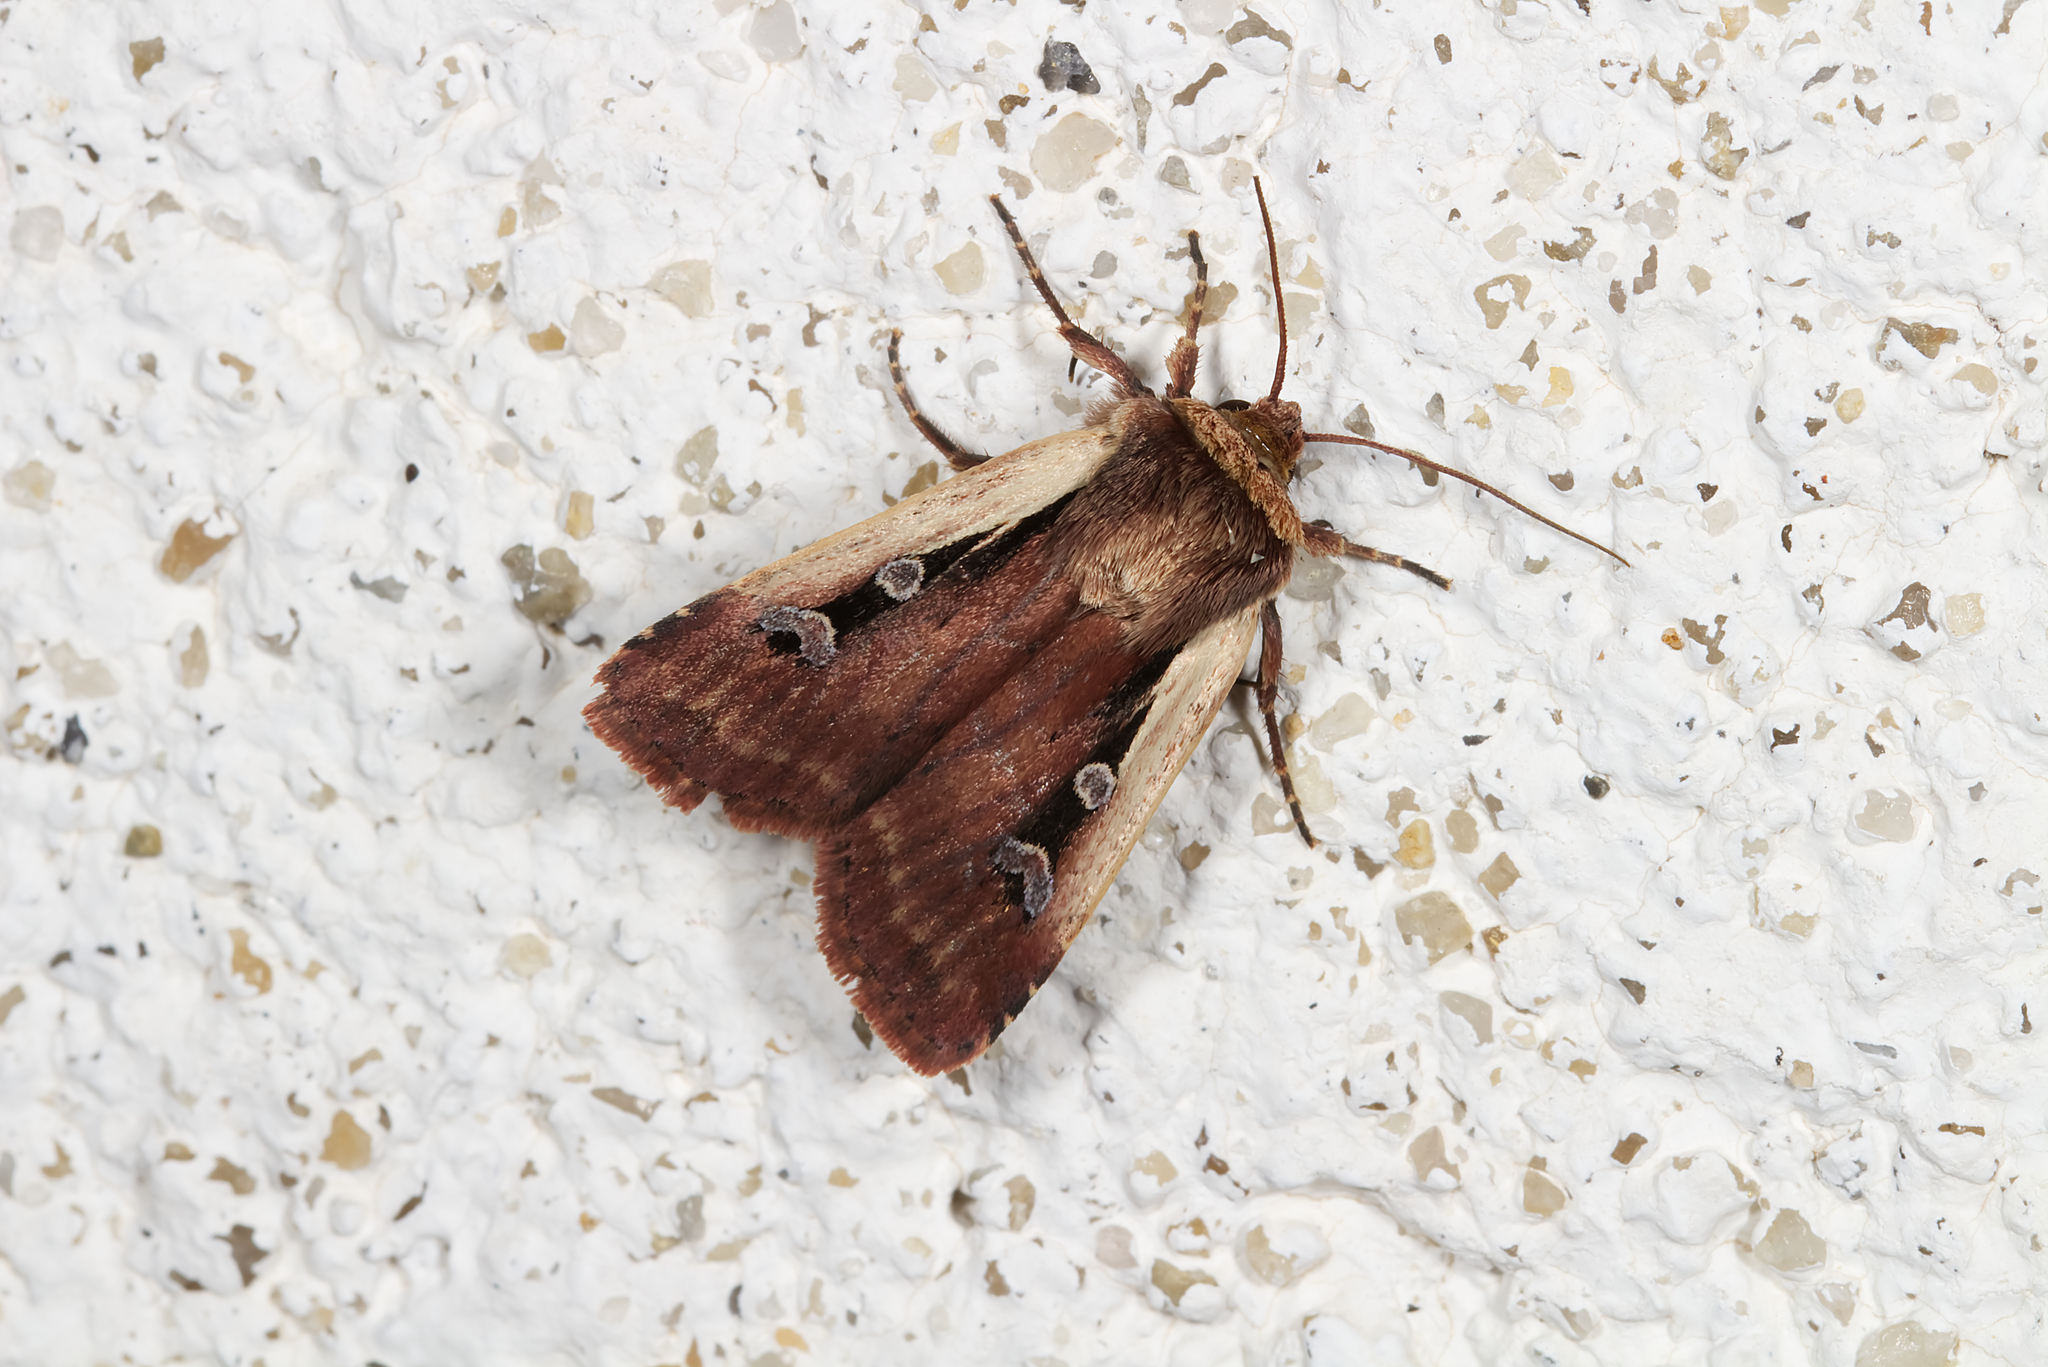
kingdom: Animalia
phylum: Arthropoda
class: Insecta
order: Lepidoptera
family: Noctuidae
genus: Ochropleura
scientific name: Ochropleura plecta
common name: Flame shoulder
